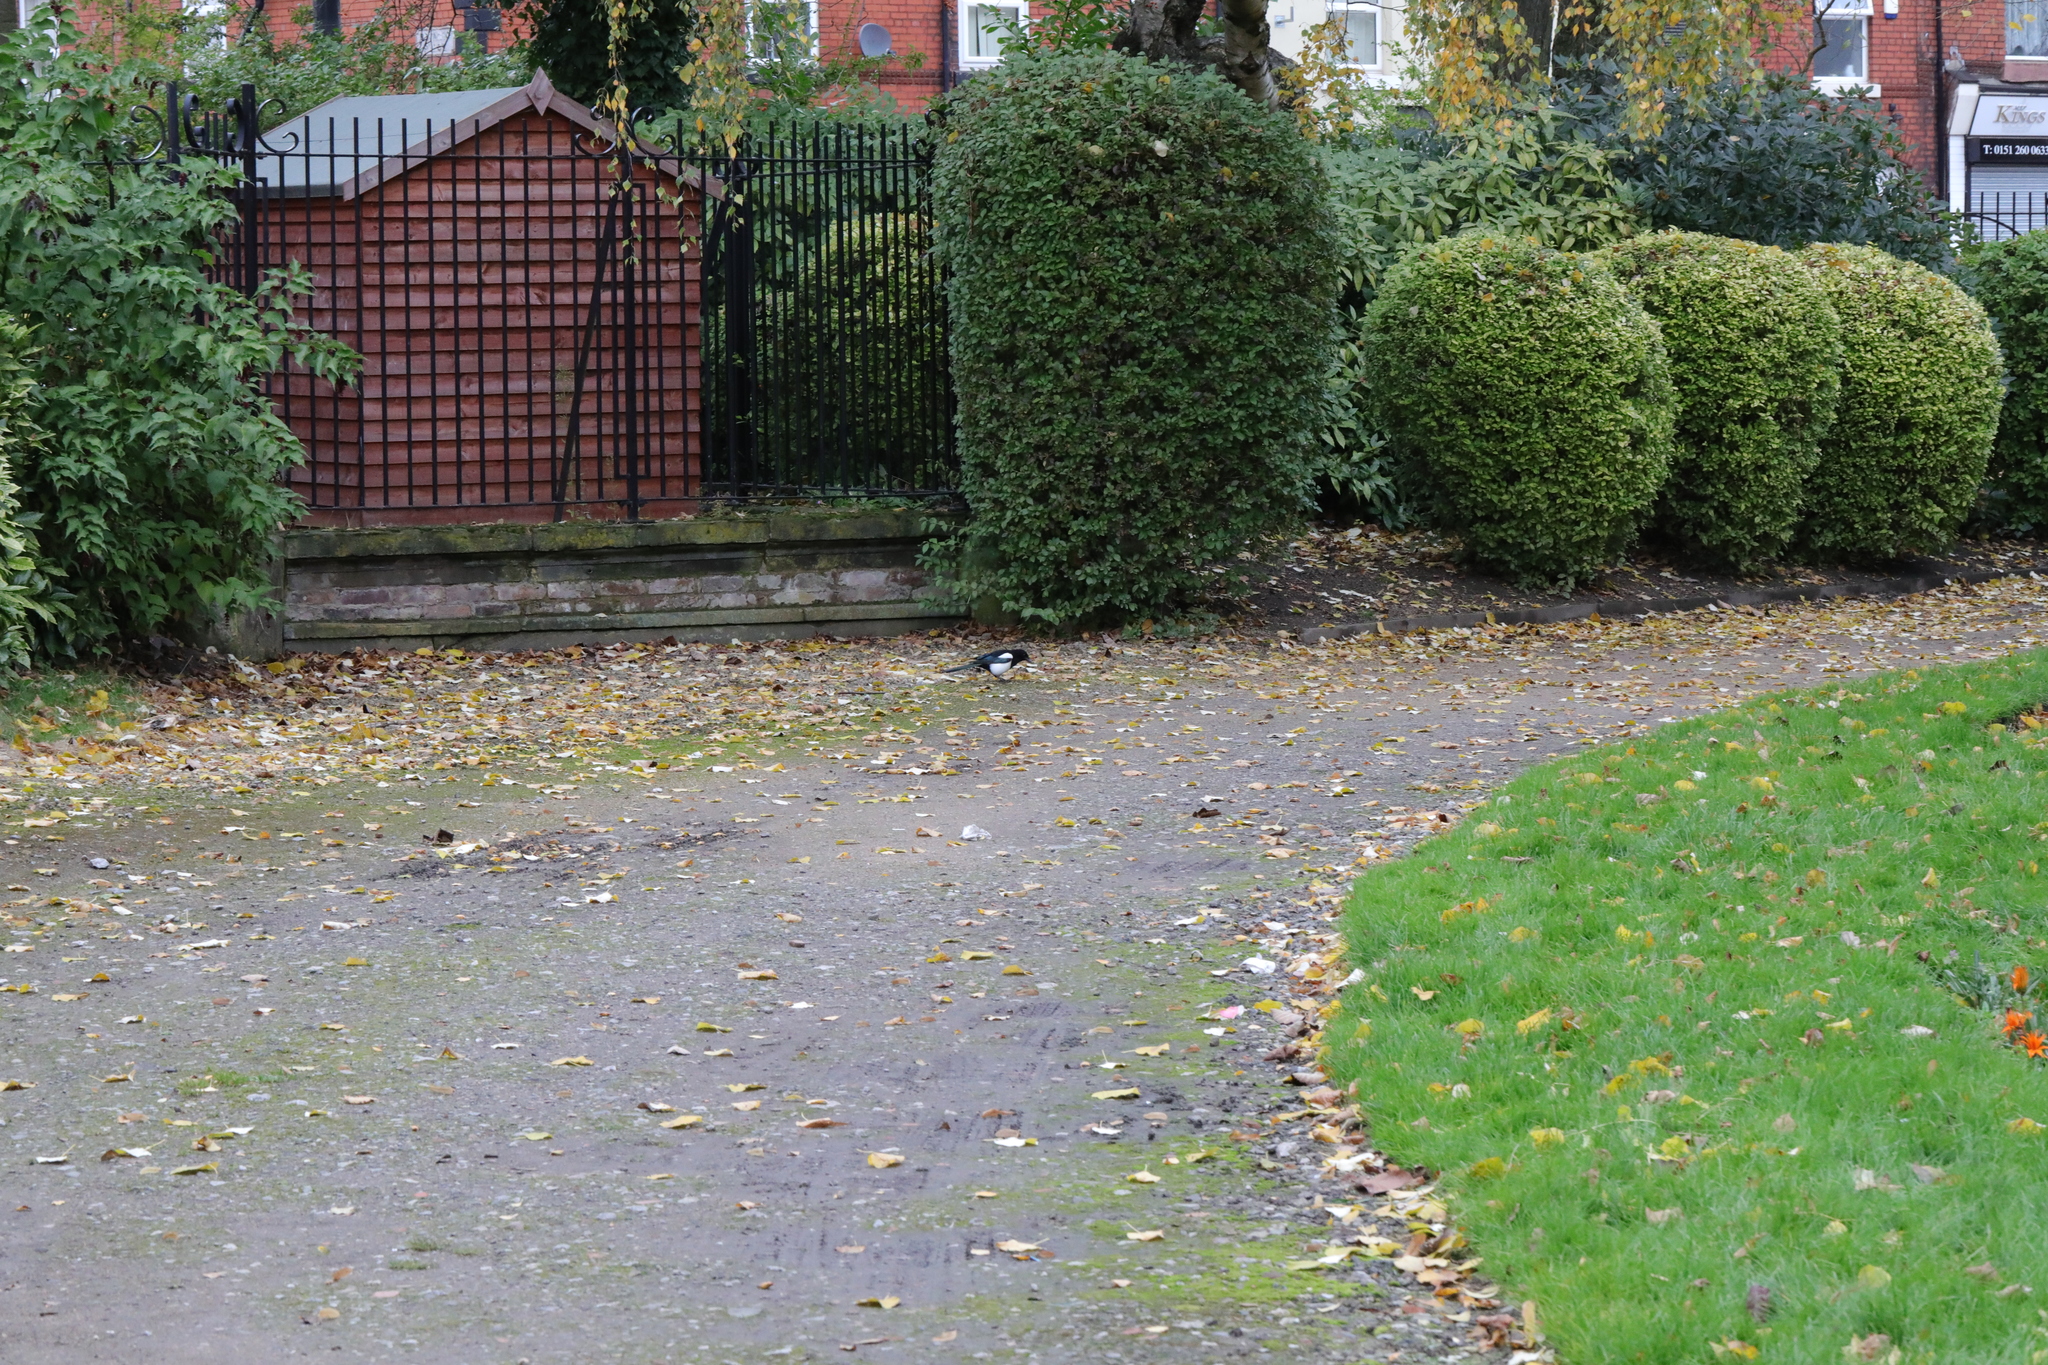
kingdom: Animalia
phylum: Chordata
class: Aves
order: Passeriformes
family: Corvidae
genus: Pica
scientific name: Pica pica
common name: Eurasian magpie
